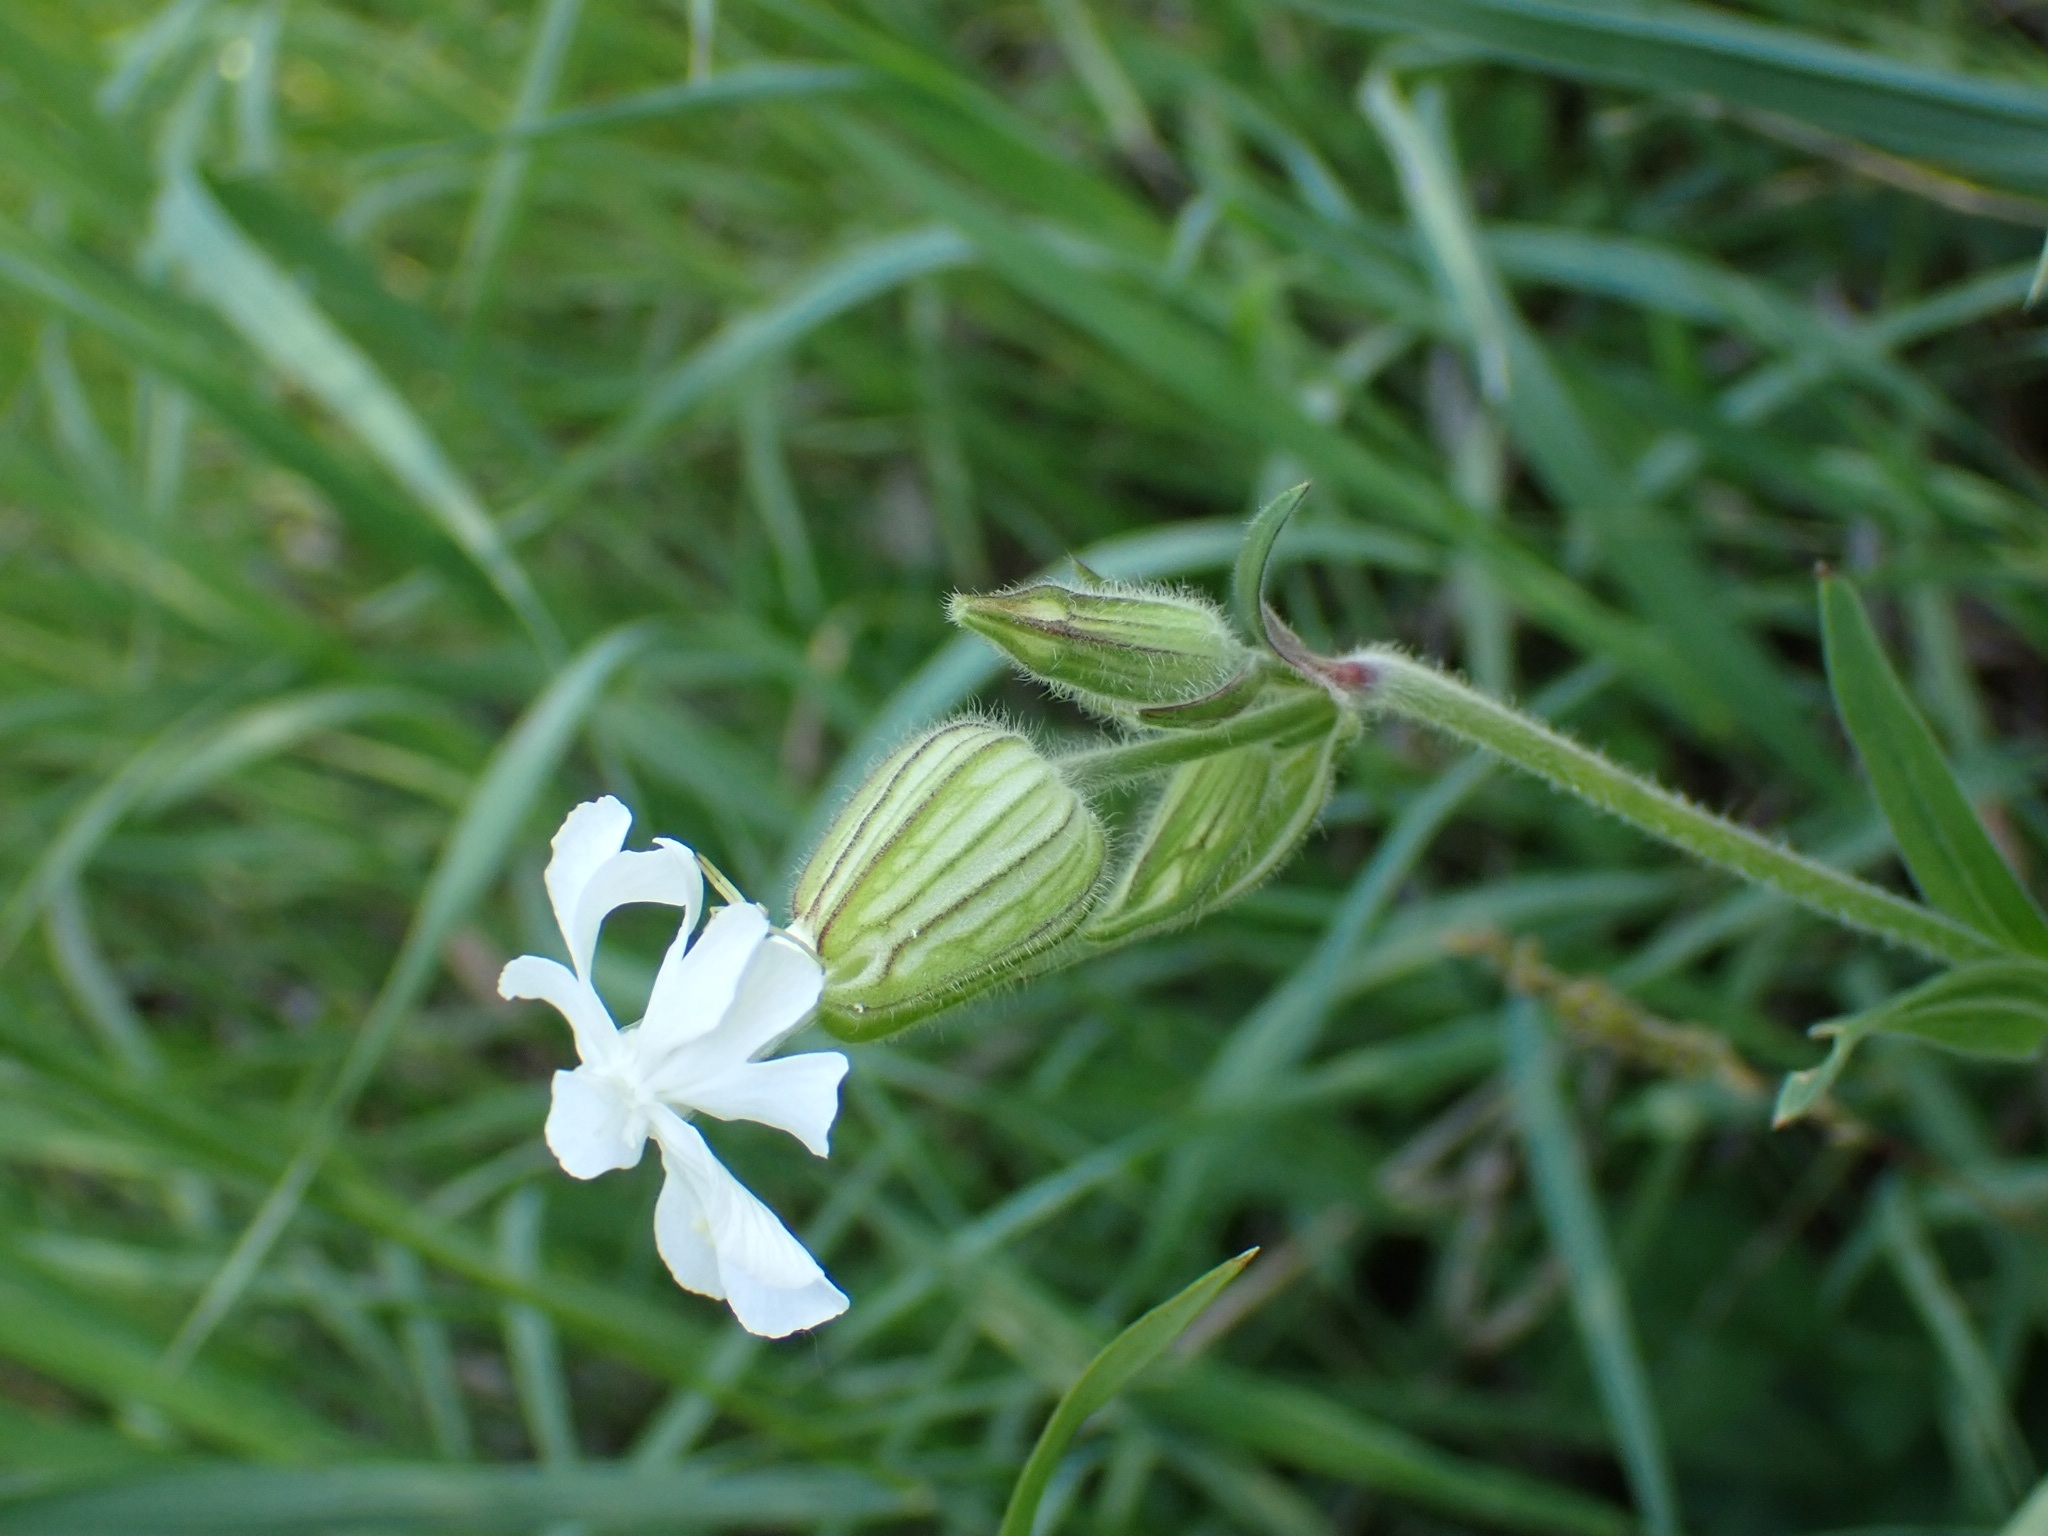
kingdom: Plantae
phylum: Tracheophyta
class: Magnoliopsida
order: Caryophyllales
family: Caryophyllaceae
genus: Silene
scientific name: Silene latifolia
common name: White campion
